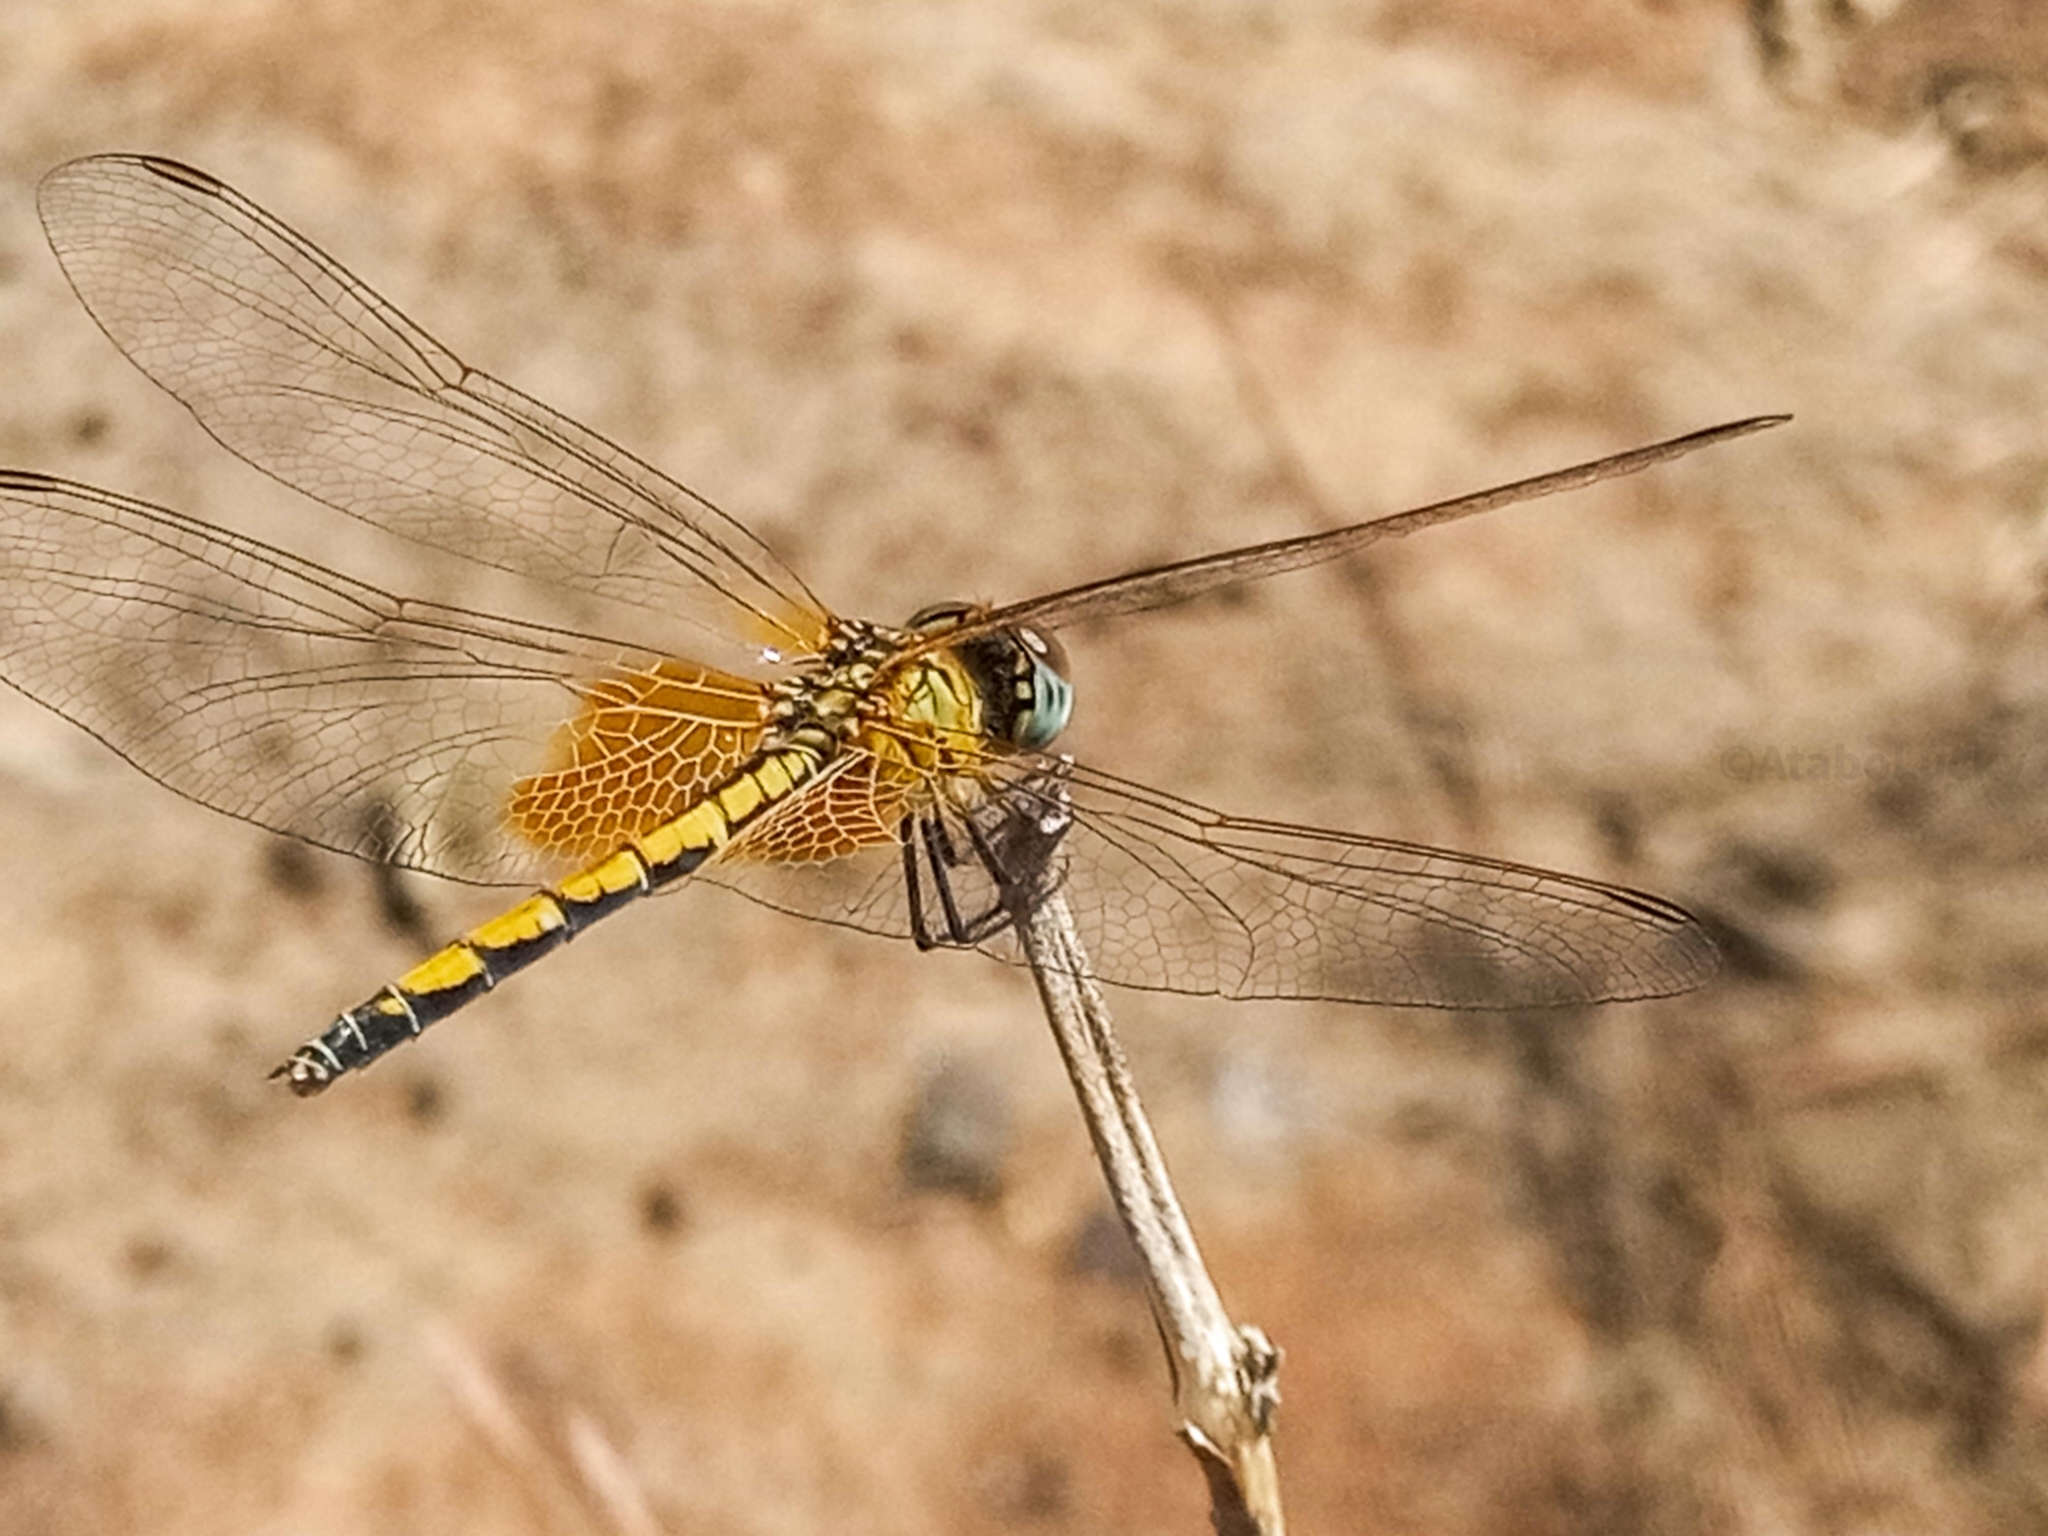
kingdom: Animalia
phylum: Arthropoda
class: Insecta
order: Odonata
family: Libellulidae
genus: Trithemis
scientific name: Trithemis arteriosa
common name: Red-veined dropwing
